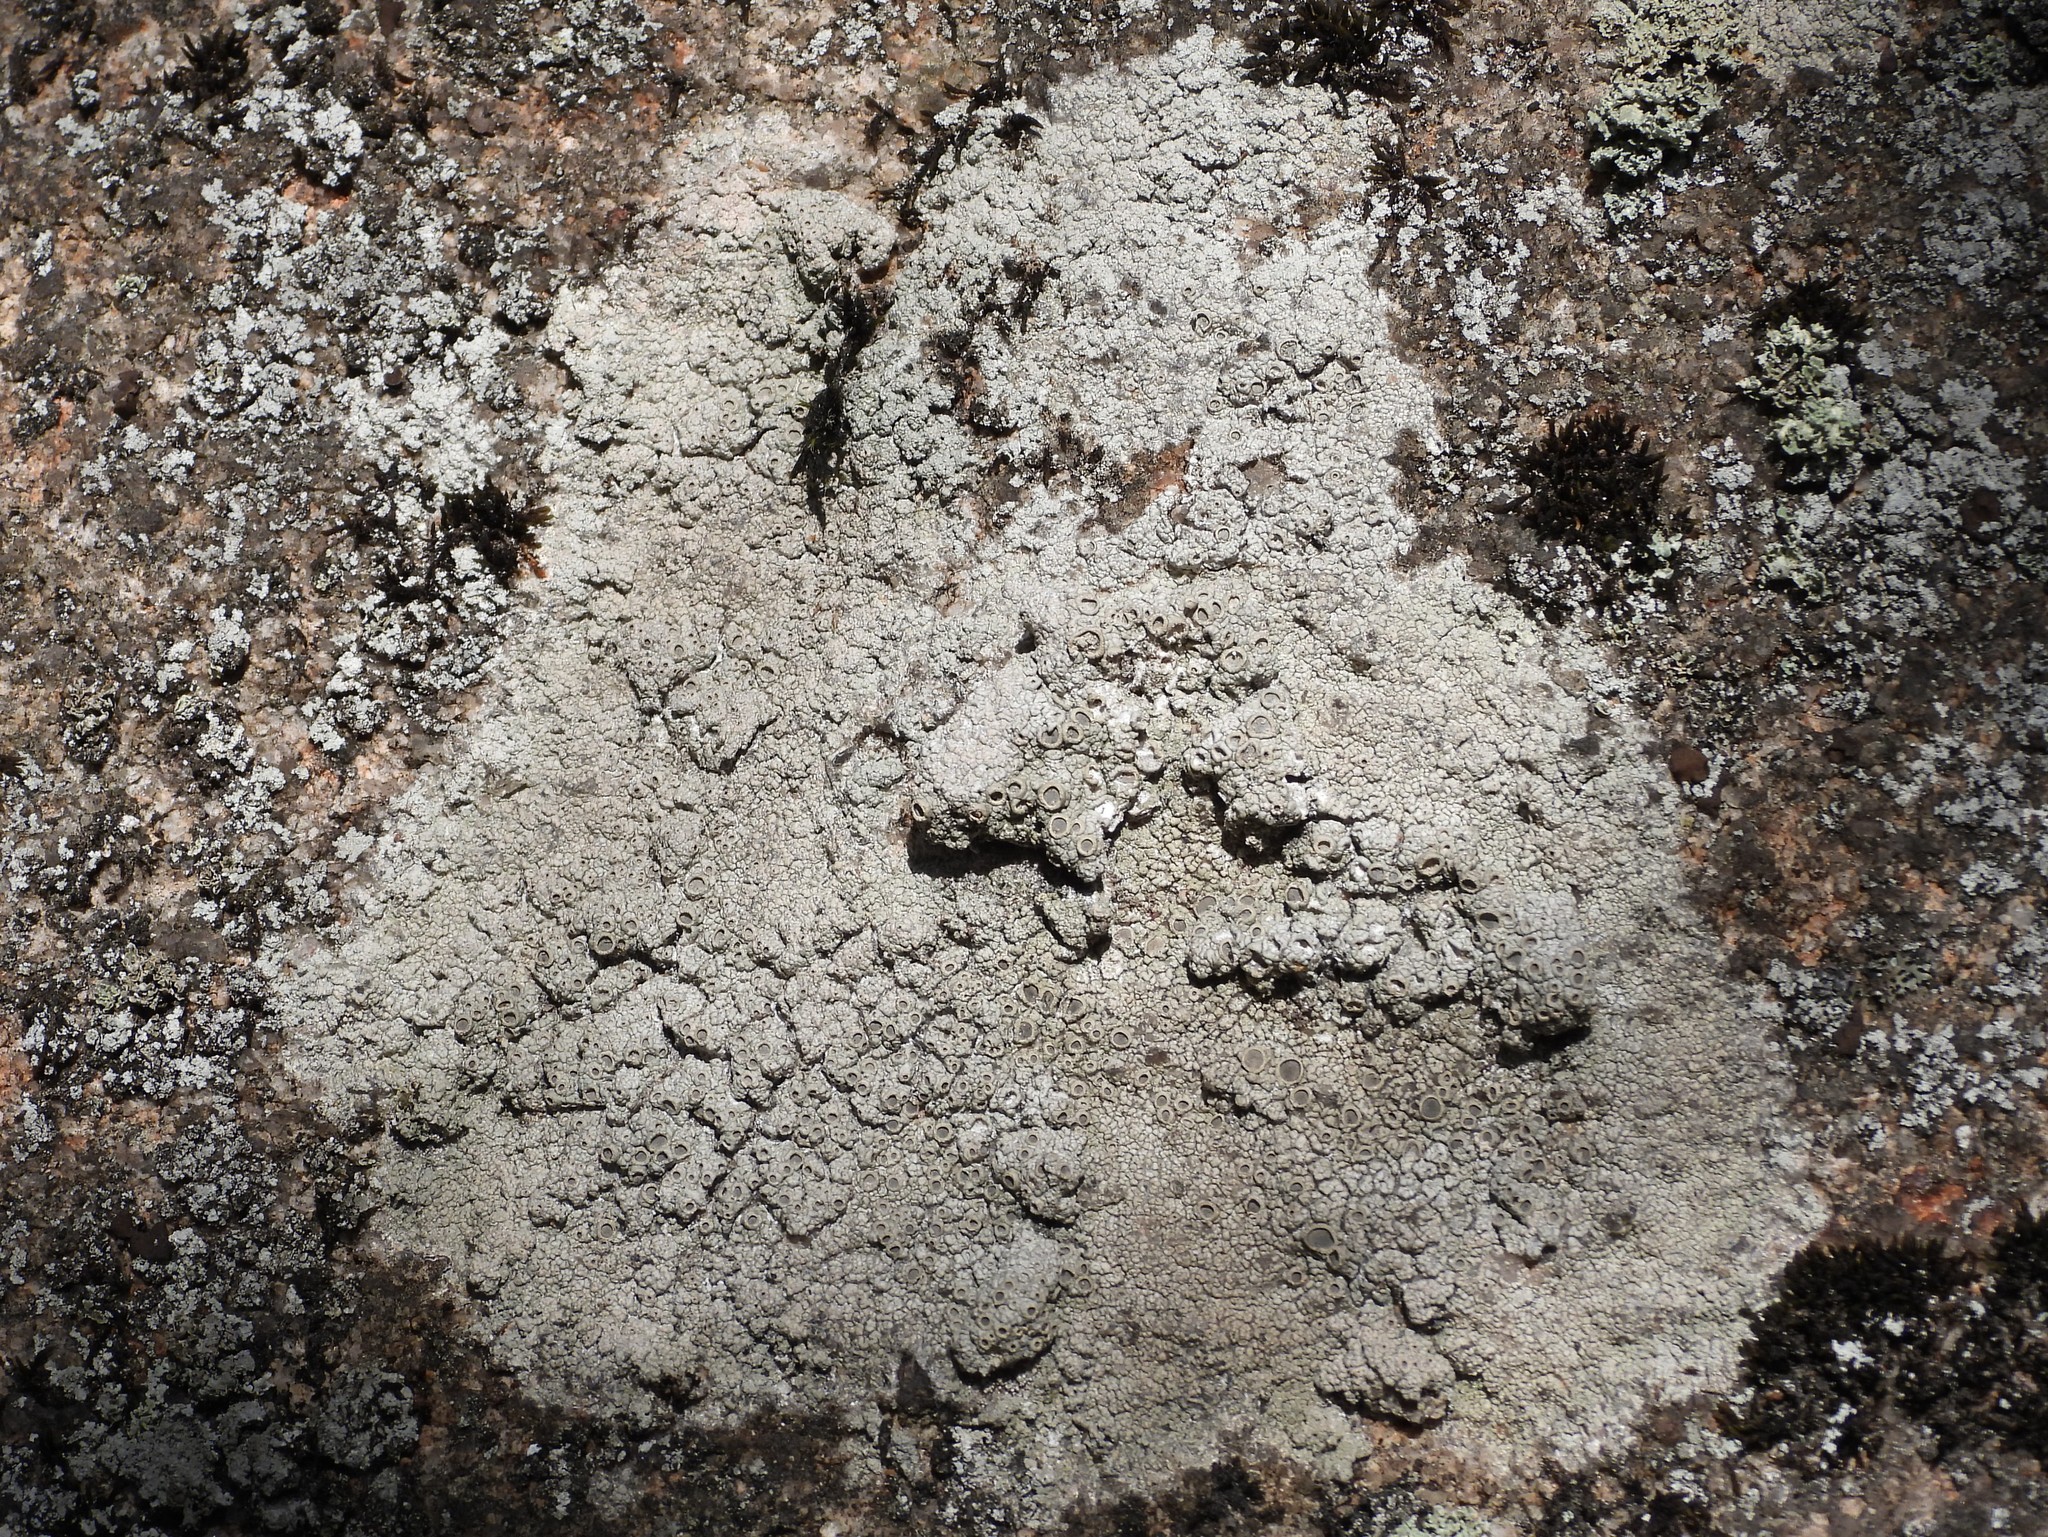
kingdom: Fungi
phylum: Ascomycota
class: Lecanoromycetes
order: Ostropales
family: Graphidaceae
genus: Diploschistes
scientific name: Diploschistes scruposus
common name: Crater lichen
